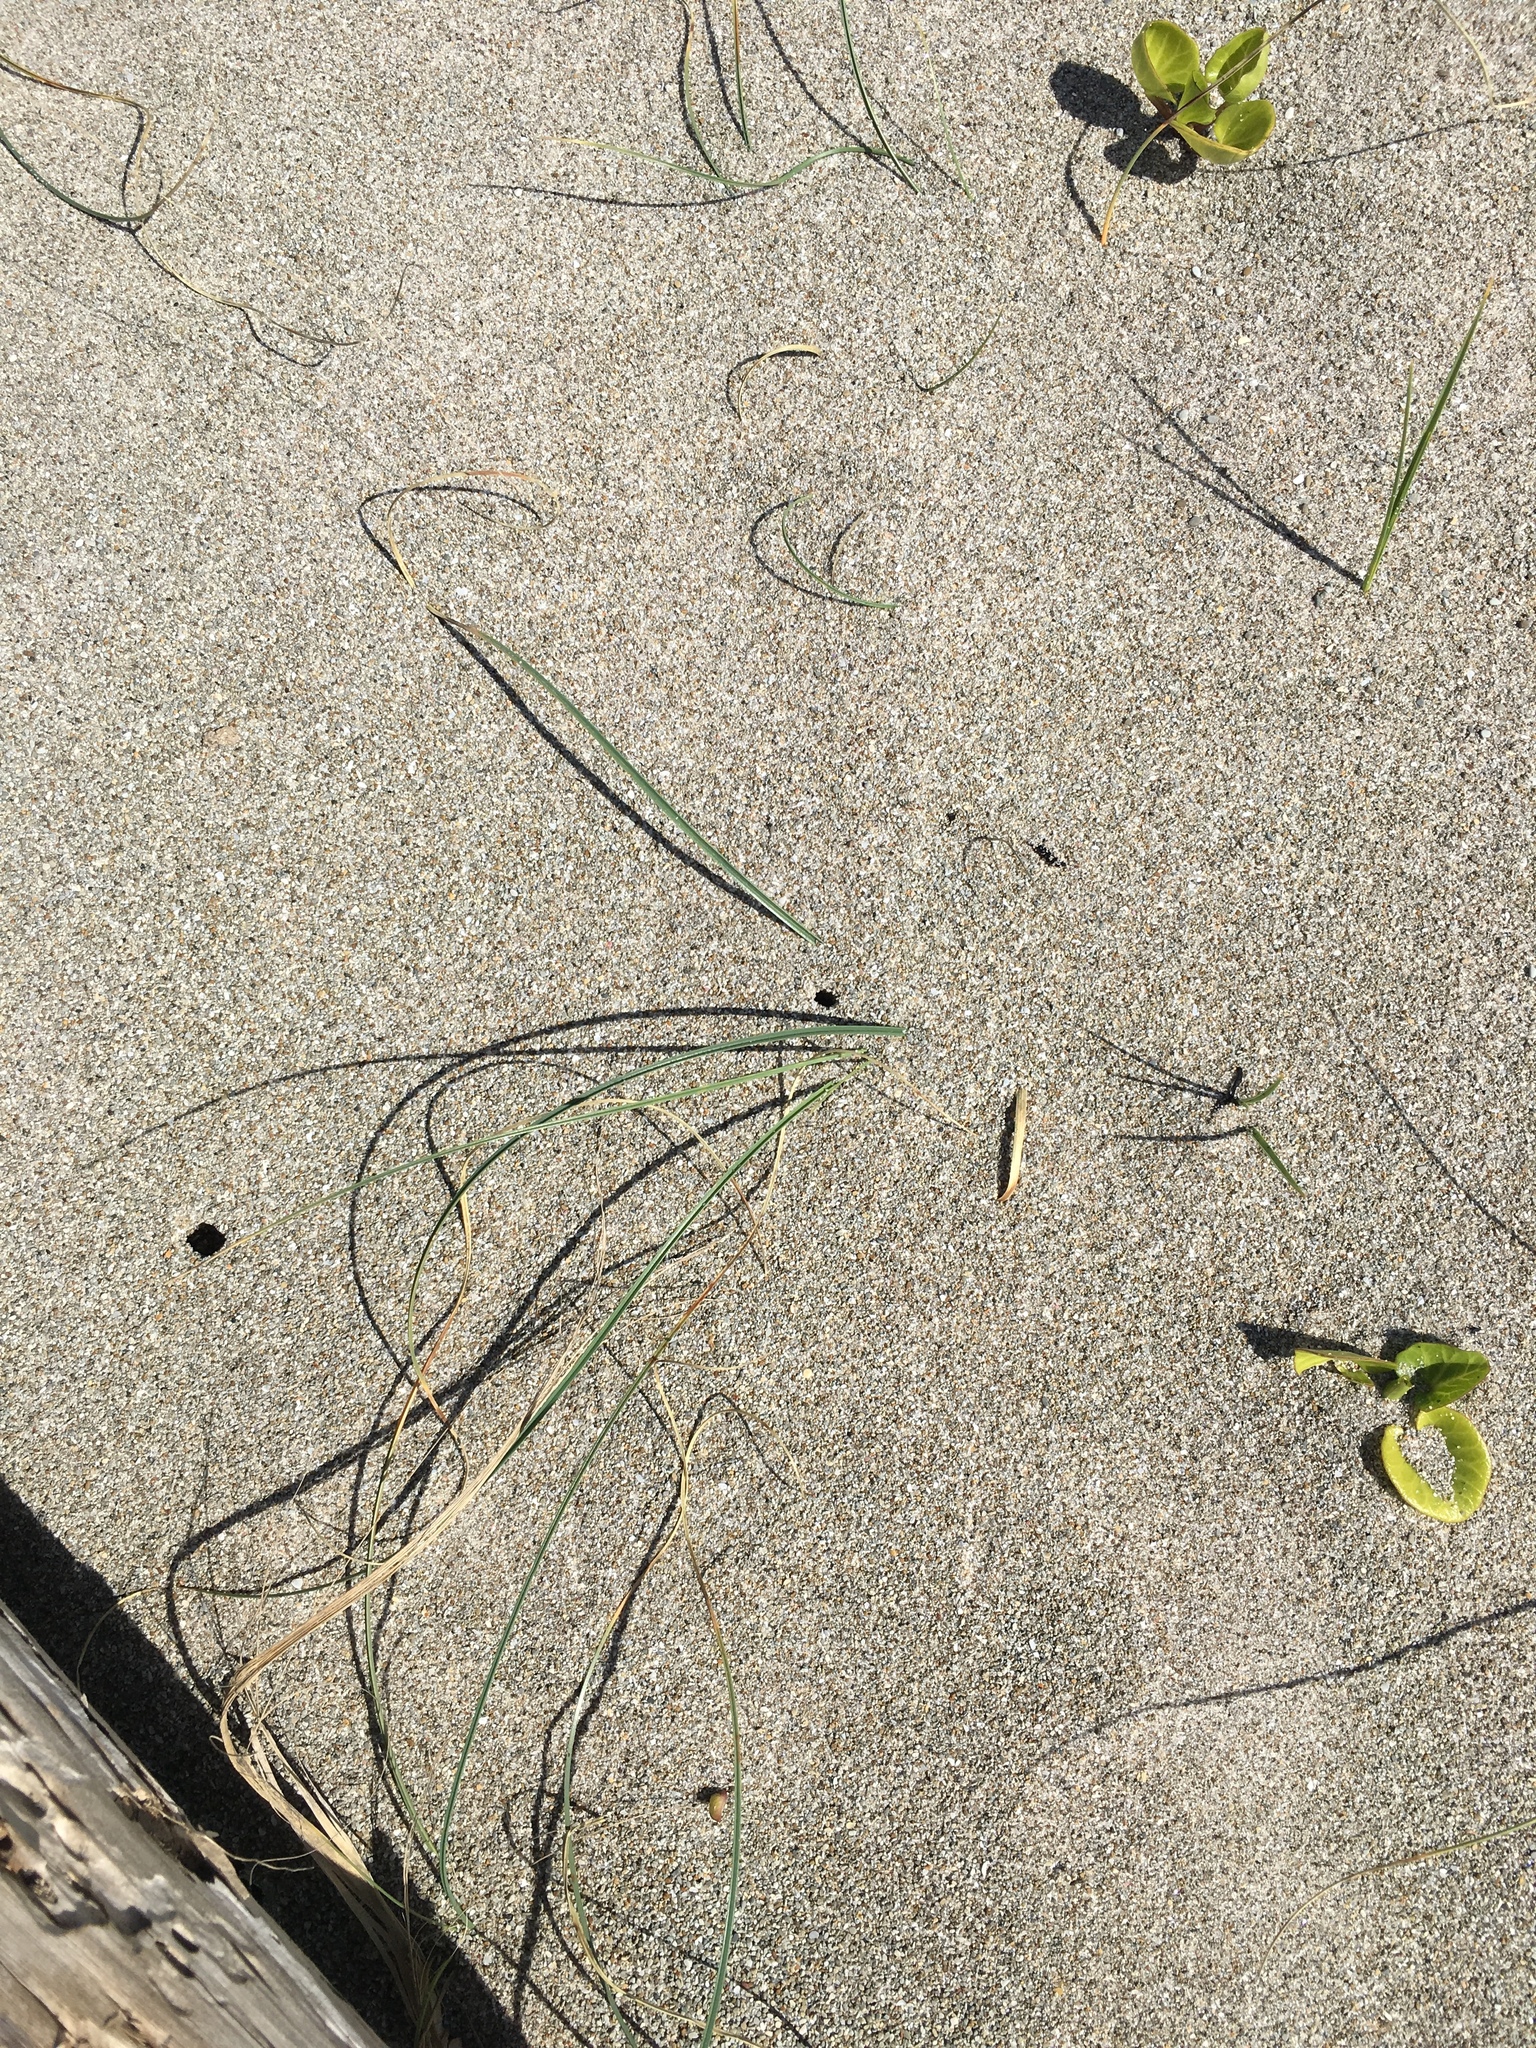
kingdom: Plantae
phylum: Tracheophyta
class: Liliopsida
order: Poales
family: Cyperaceae
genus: Carex
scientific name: Carex pumila
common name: Dwarf sedge
